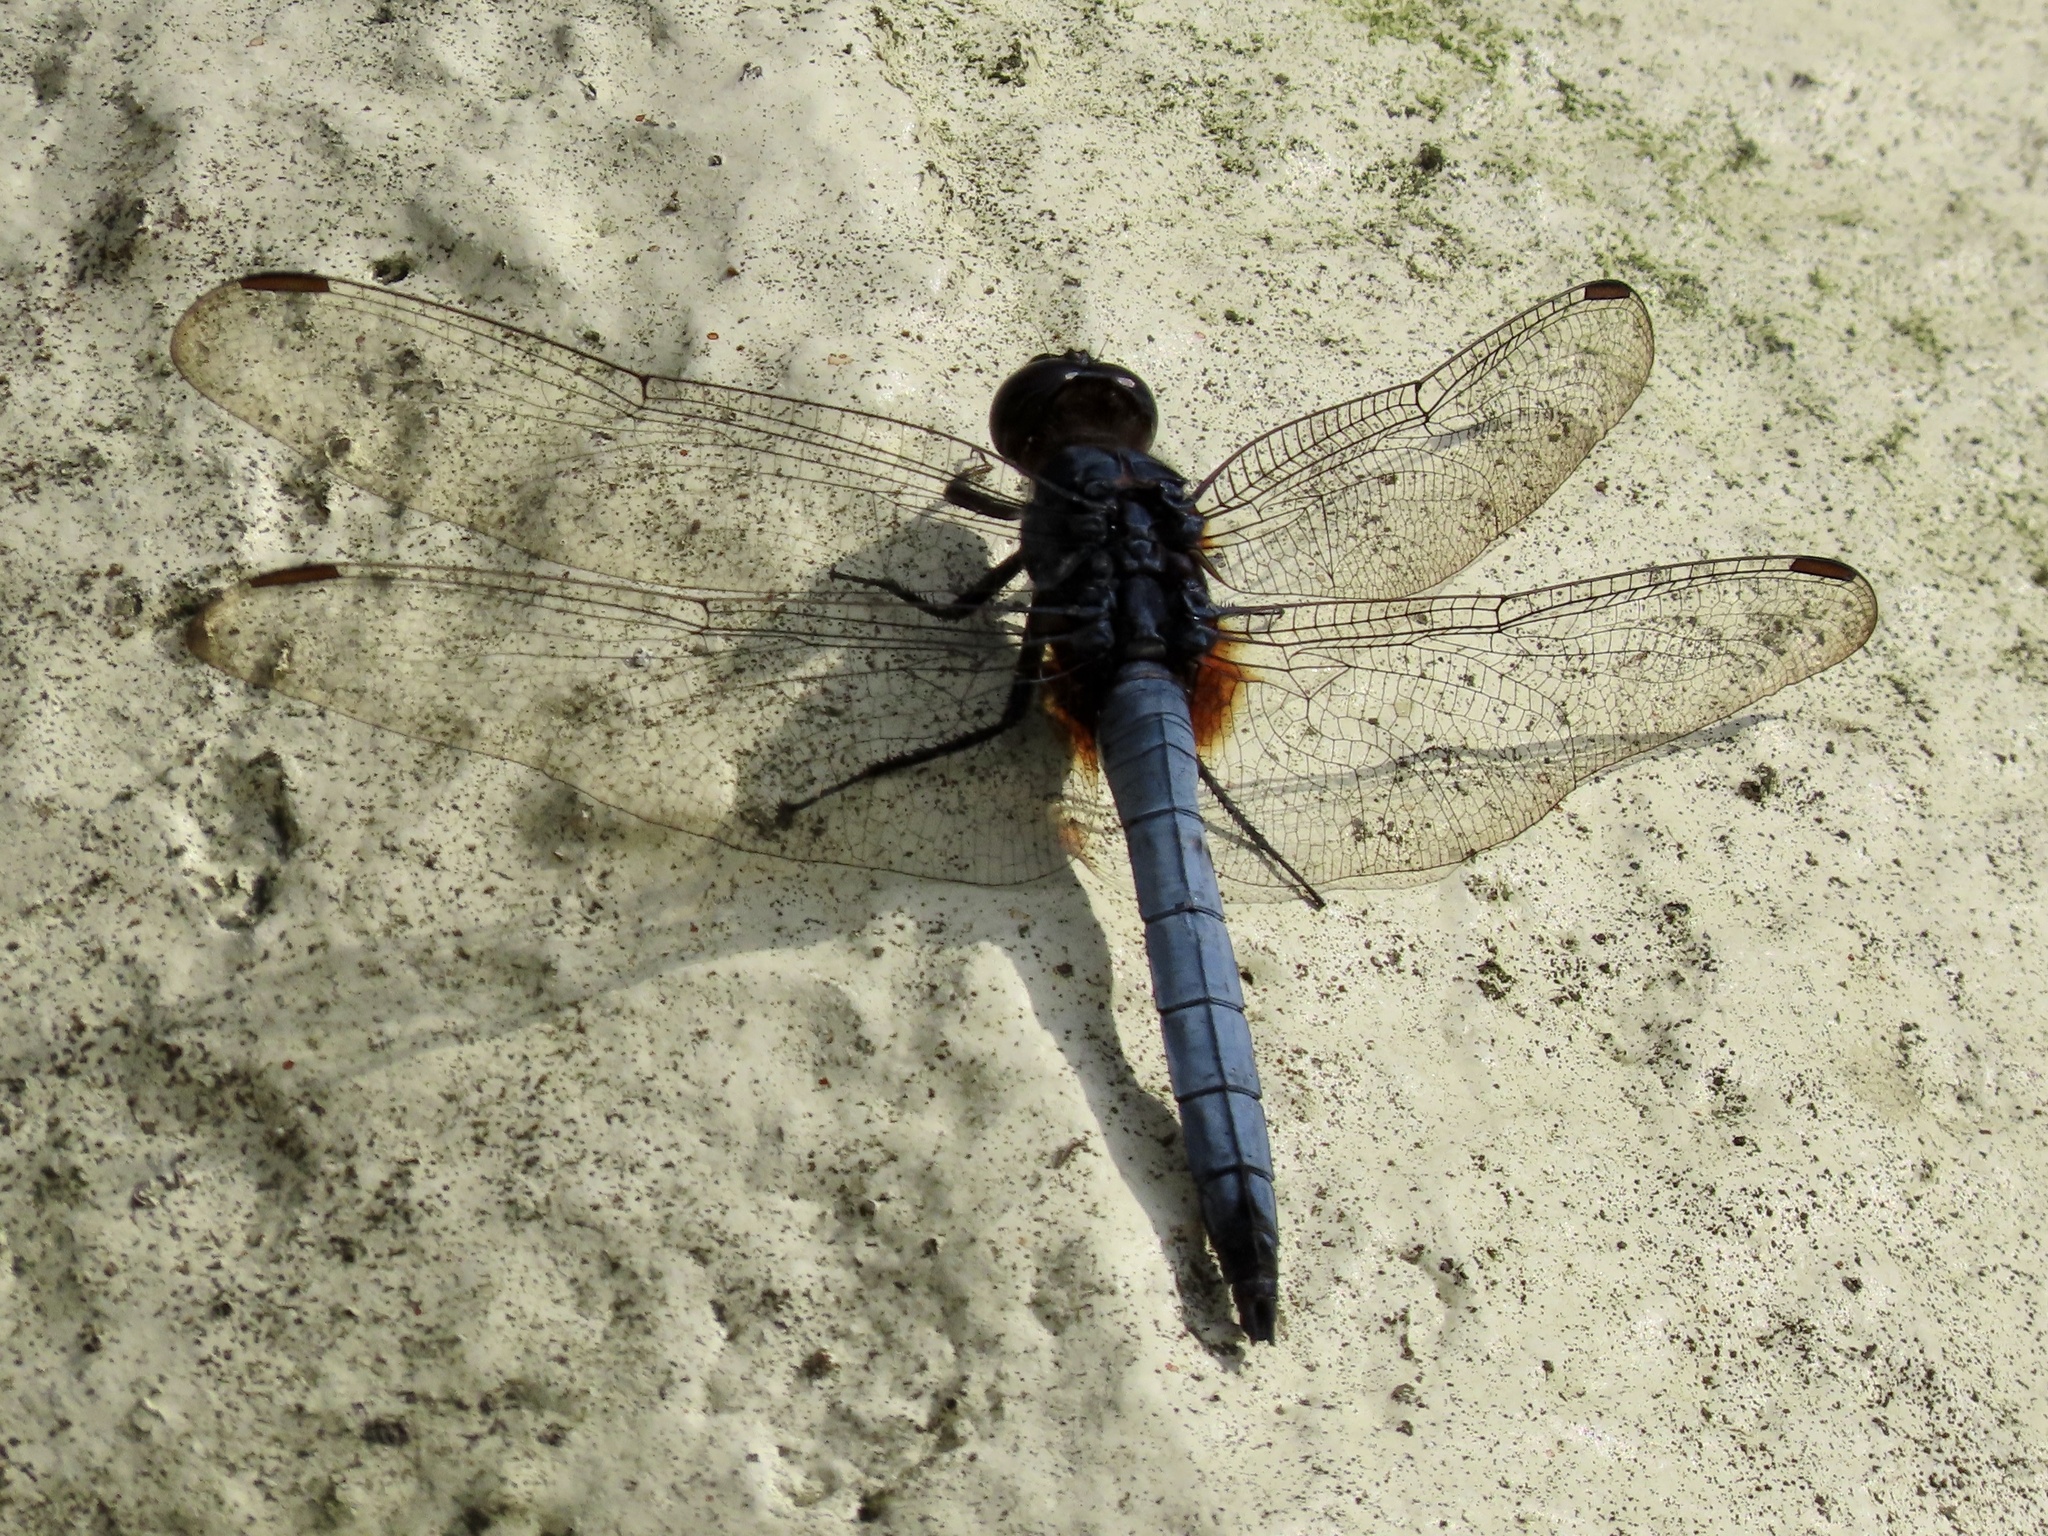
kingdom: Animalia
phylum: Arthropoda
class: Insecta
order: Odonata
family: Libellulidae
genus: Orthetrum
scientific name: Orthetrum glaucum
